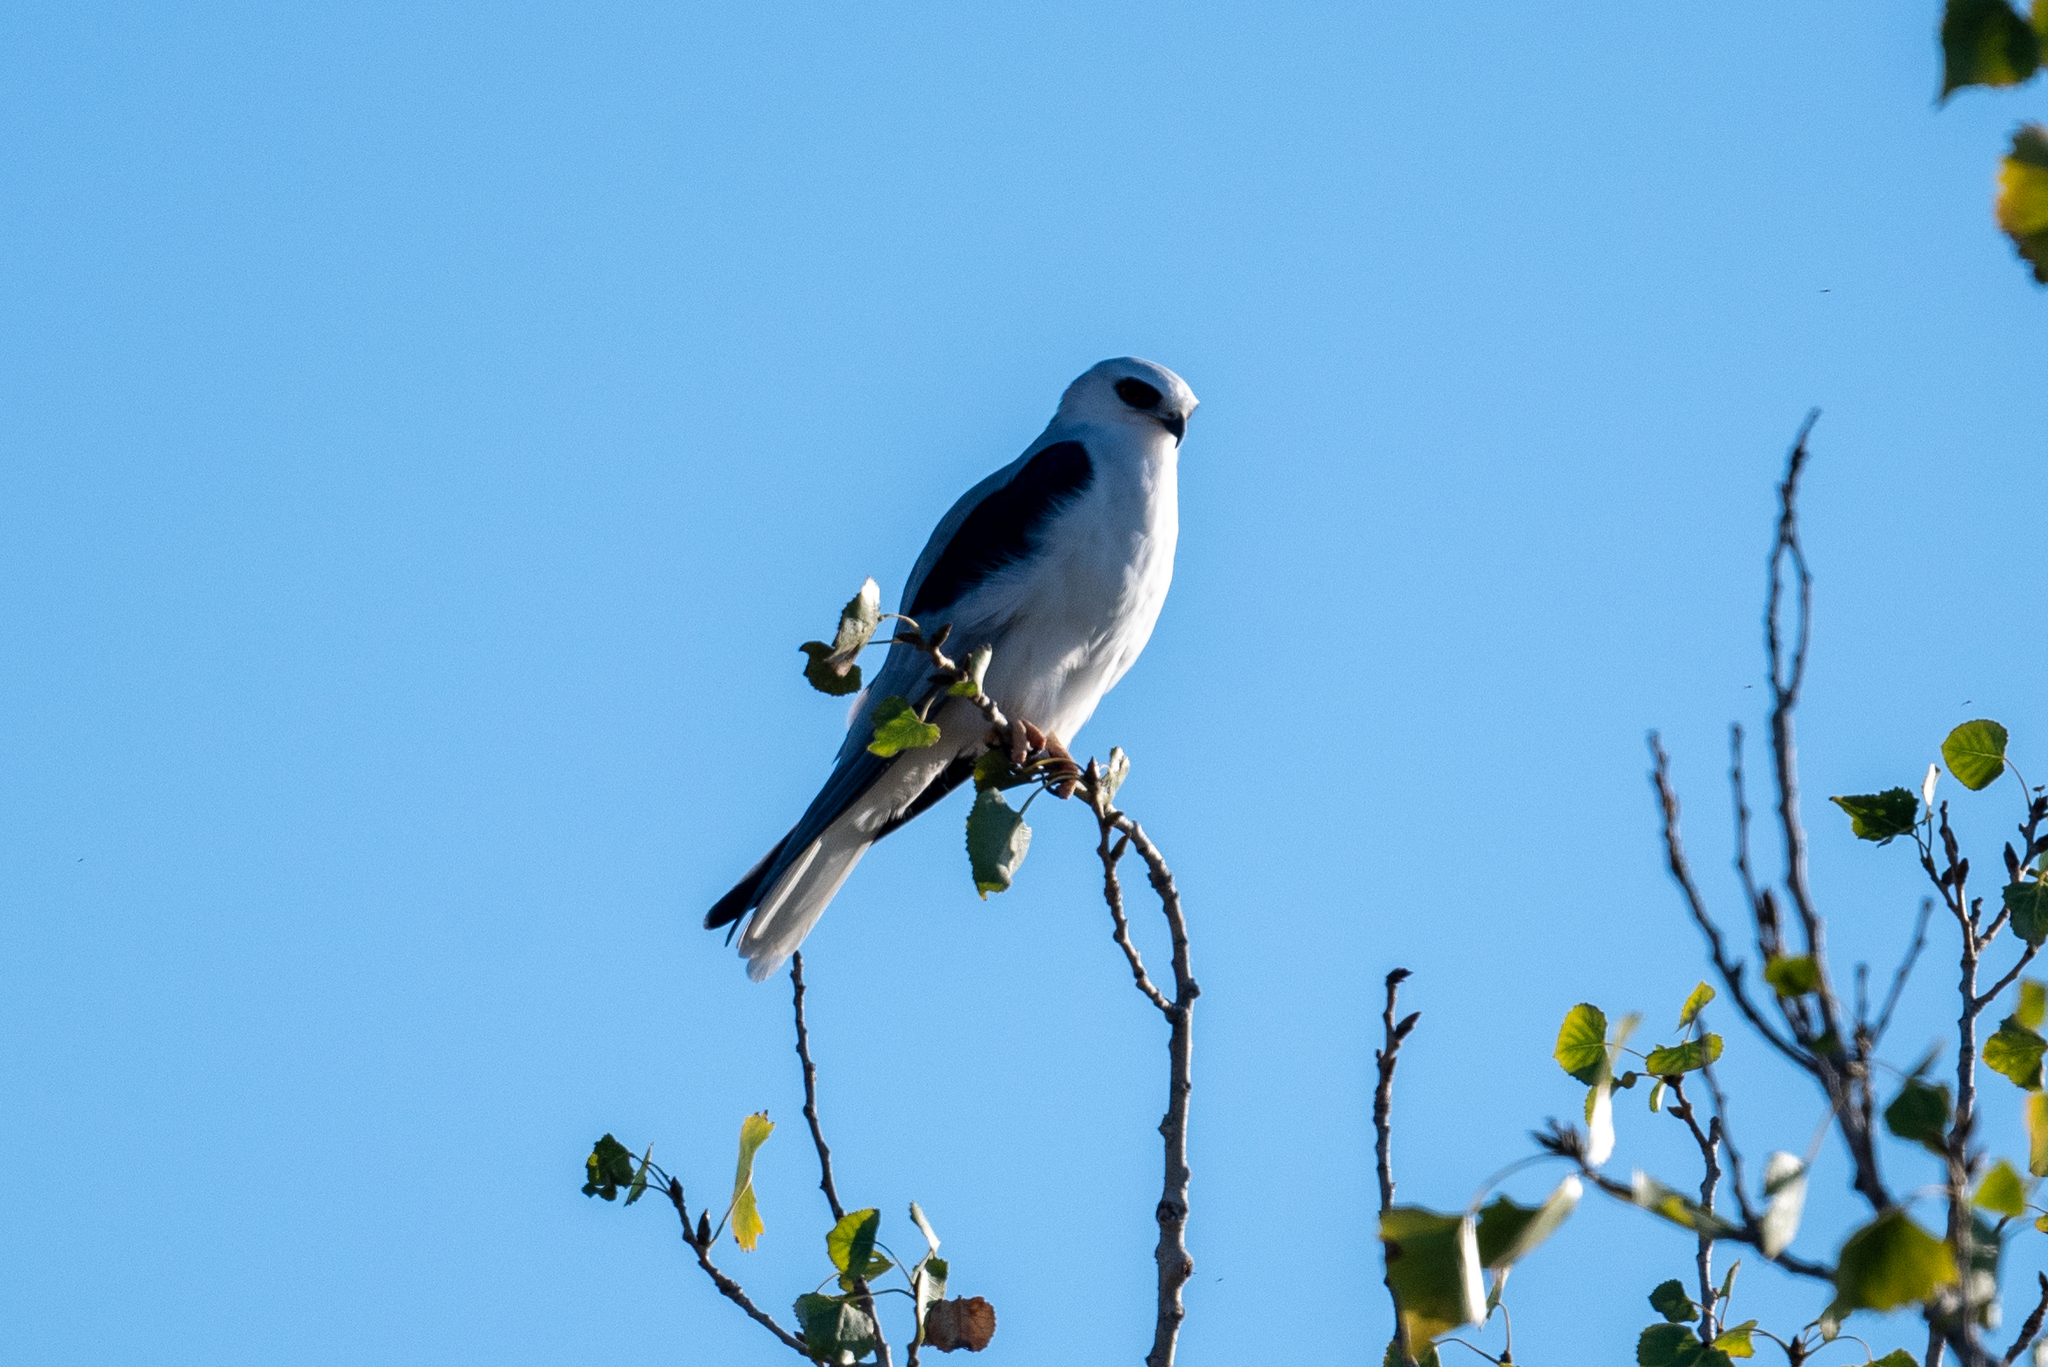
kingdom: Animalia
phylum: Chordata
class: Aves
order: Accipitriformes
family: Accipitridae
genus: Elanus
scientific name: Elanus leucurus
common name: White-tailed kite
